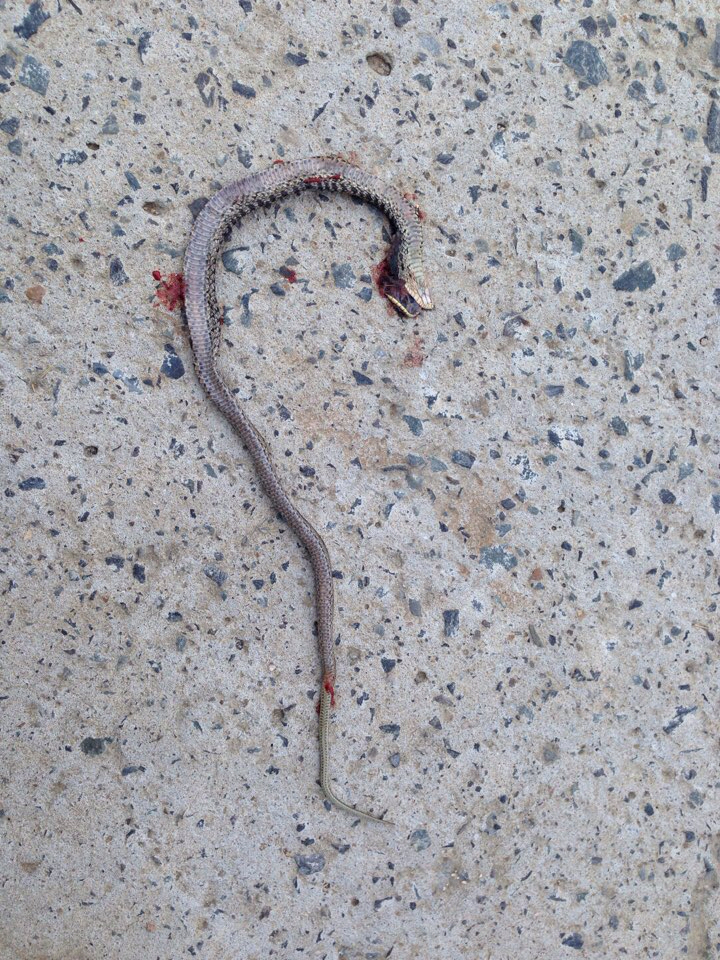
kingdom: Animalia
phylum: Chordata
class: Squamata
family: Colubridae
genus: Elaphe
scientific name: Elaphe dione
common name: Dione ratsnake
